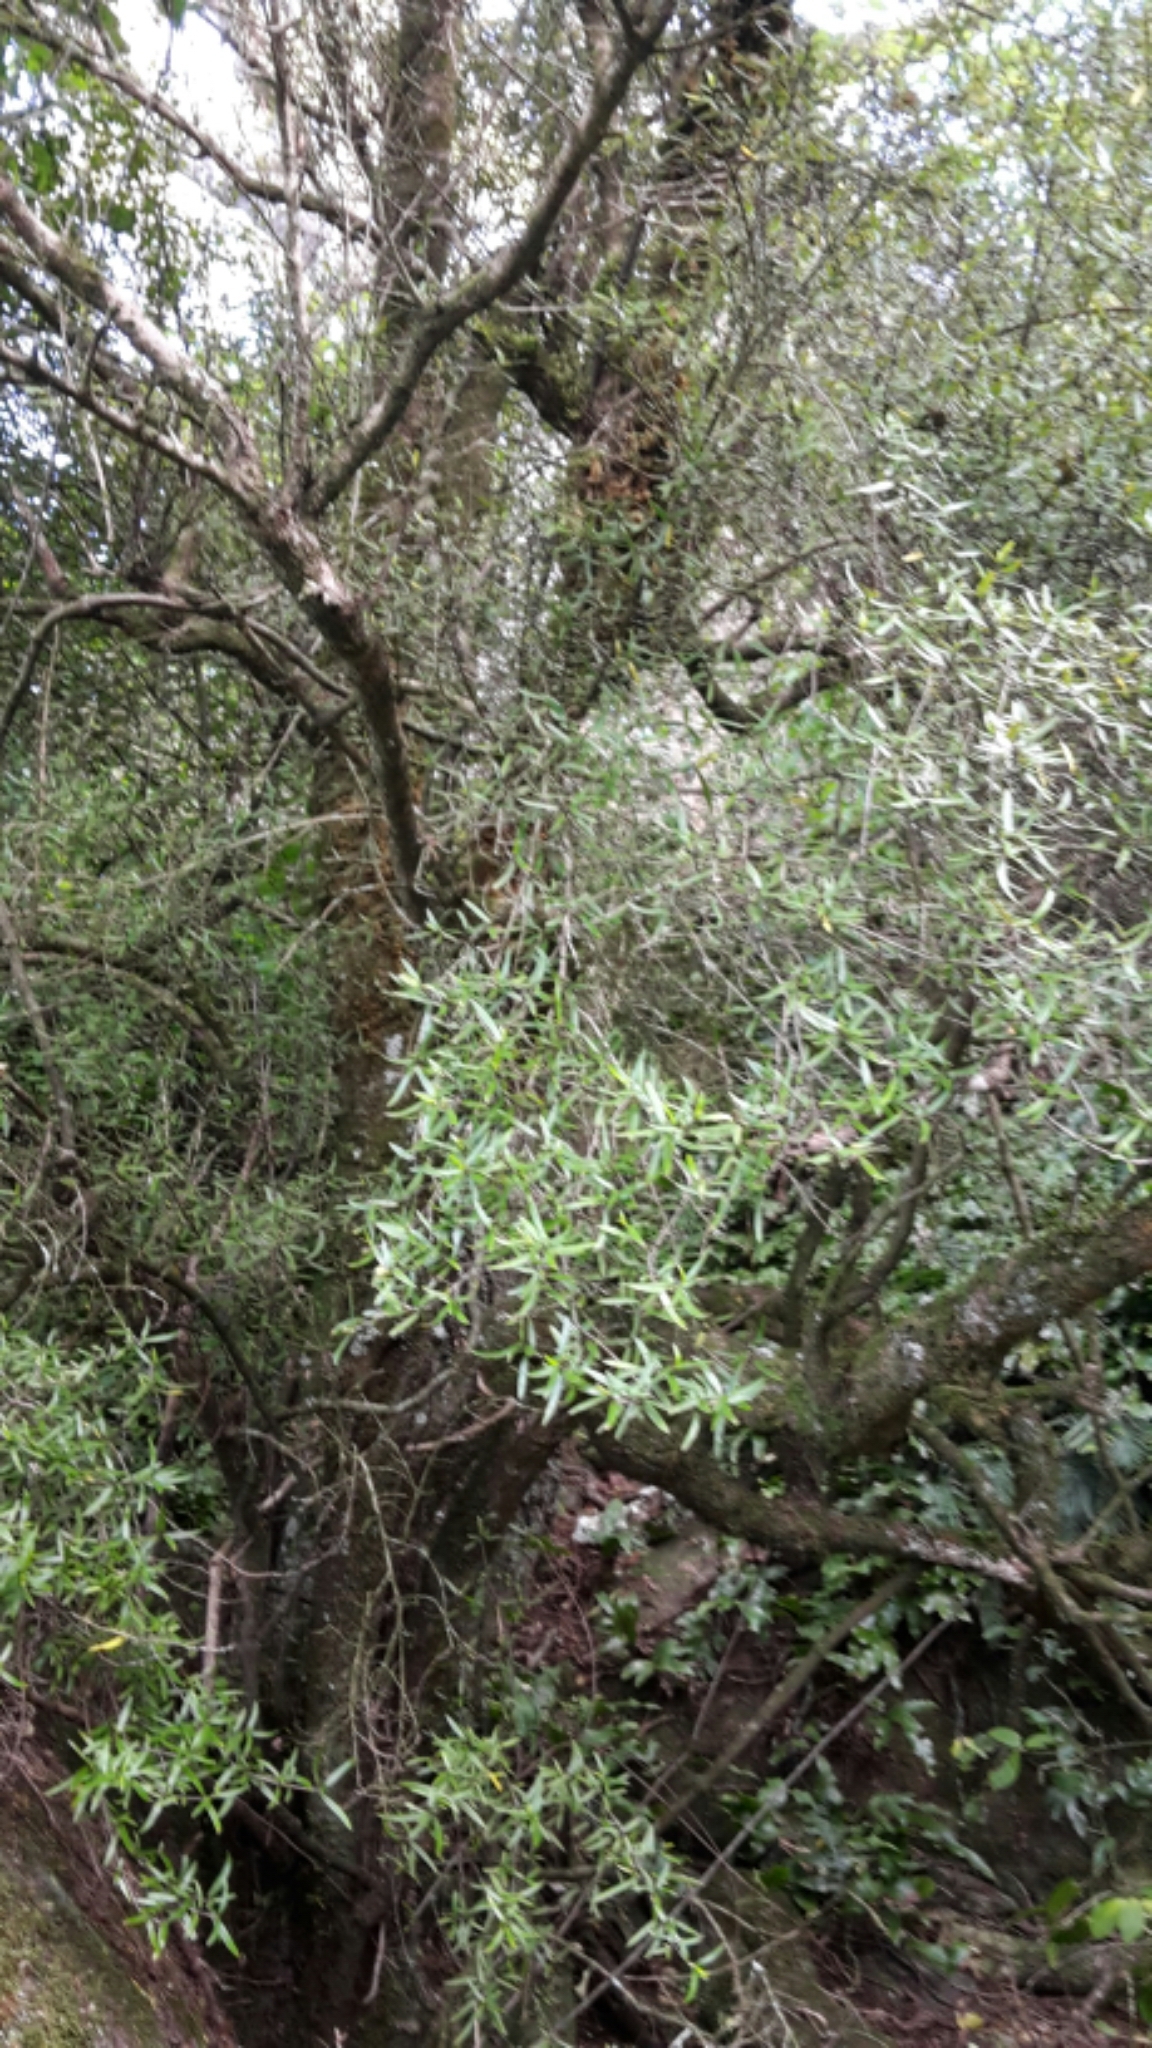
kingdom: Plantae
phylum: Tracheophyta
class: Magnoliopsida
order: Gentianales
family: Rubiaceae
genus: Coprosma
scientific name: Coprosma linariifolia
